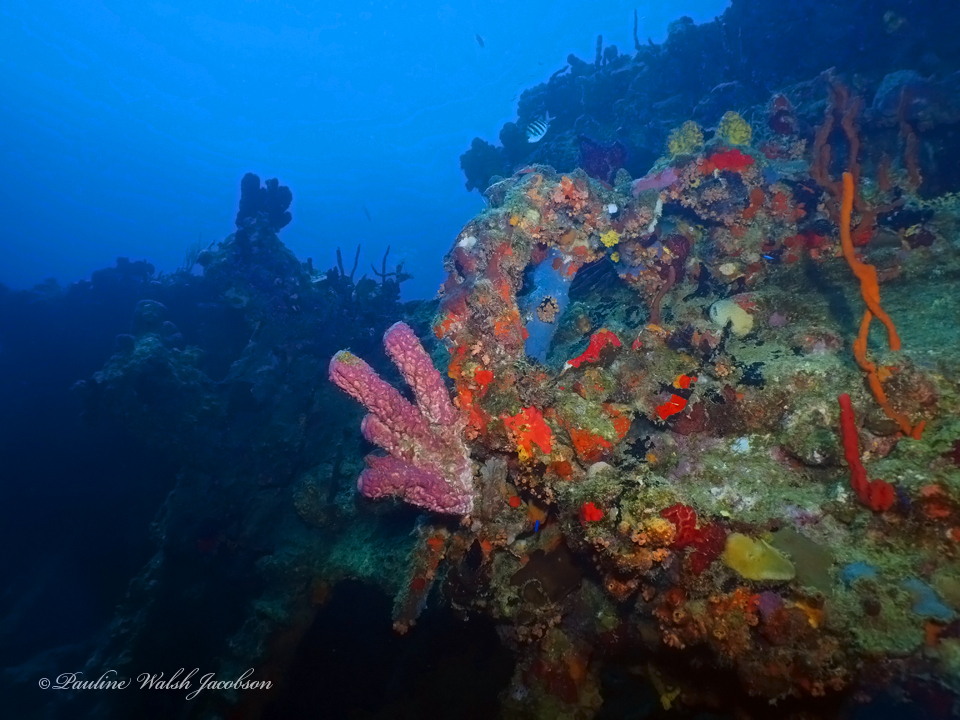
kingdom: Animalia
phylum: Porifera
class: Demospongiae
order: Verongiida
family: Aplysinidae
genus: Aplysina
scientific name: Aplysina archeri
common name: Stove-pipe sponge
